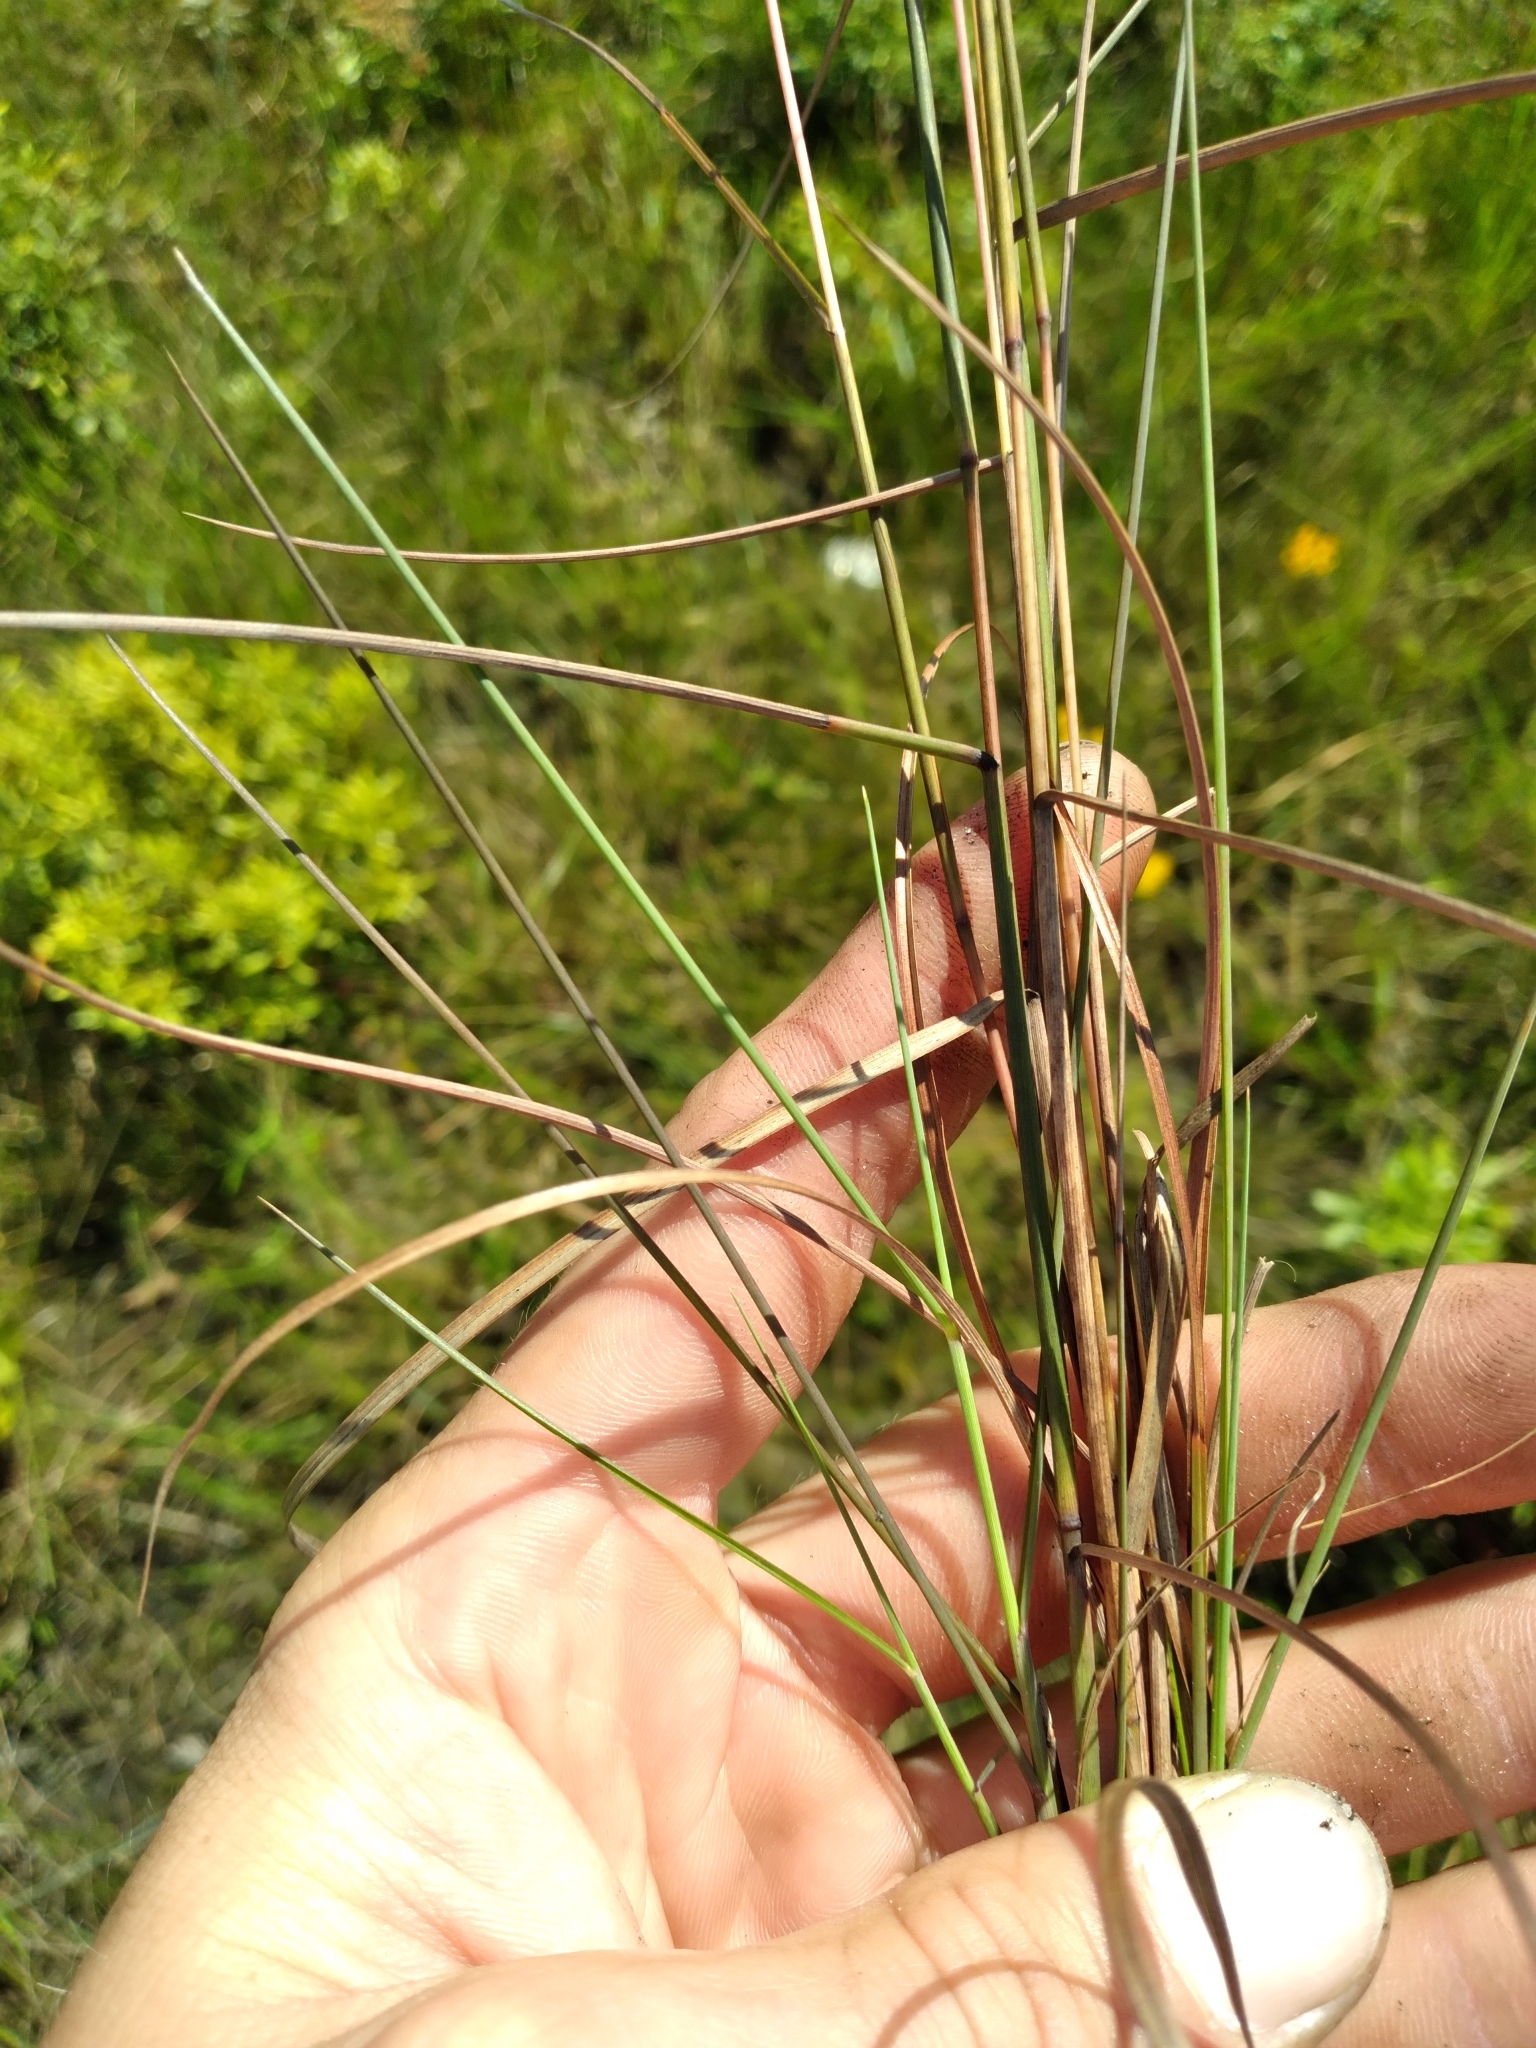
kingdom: Plantae
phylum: Tracheophyta
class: Liliopsida
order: Poales
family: Poaceae
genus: Schizachyrium
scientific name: Schizachyrium rhizomatum
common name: Florida little bluestem
